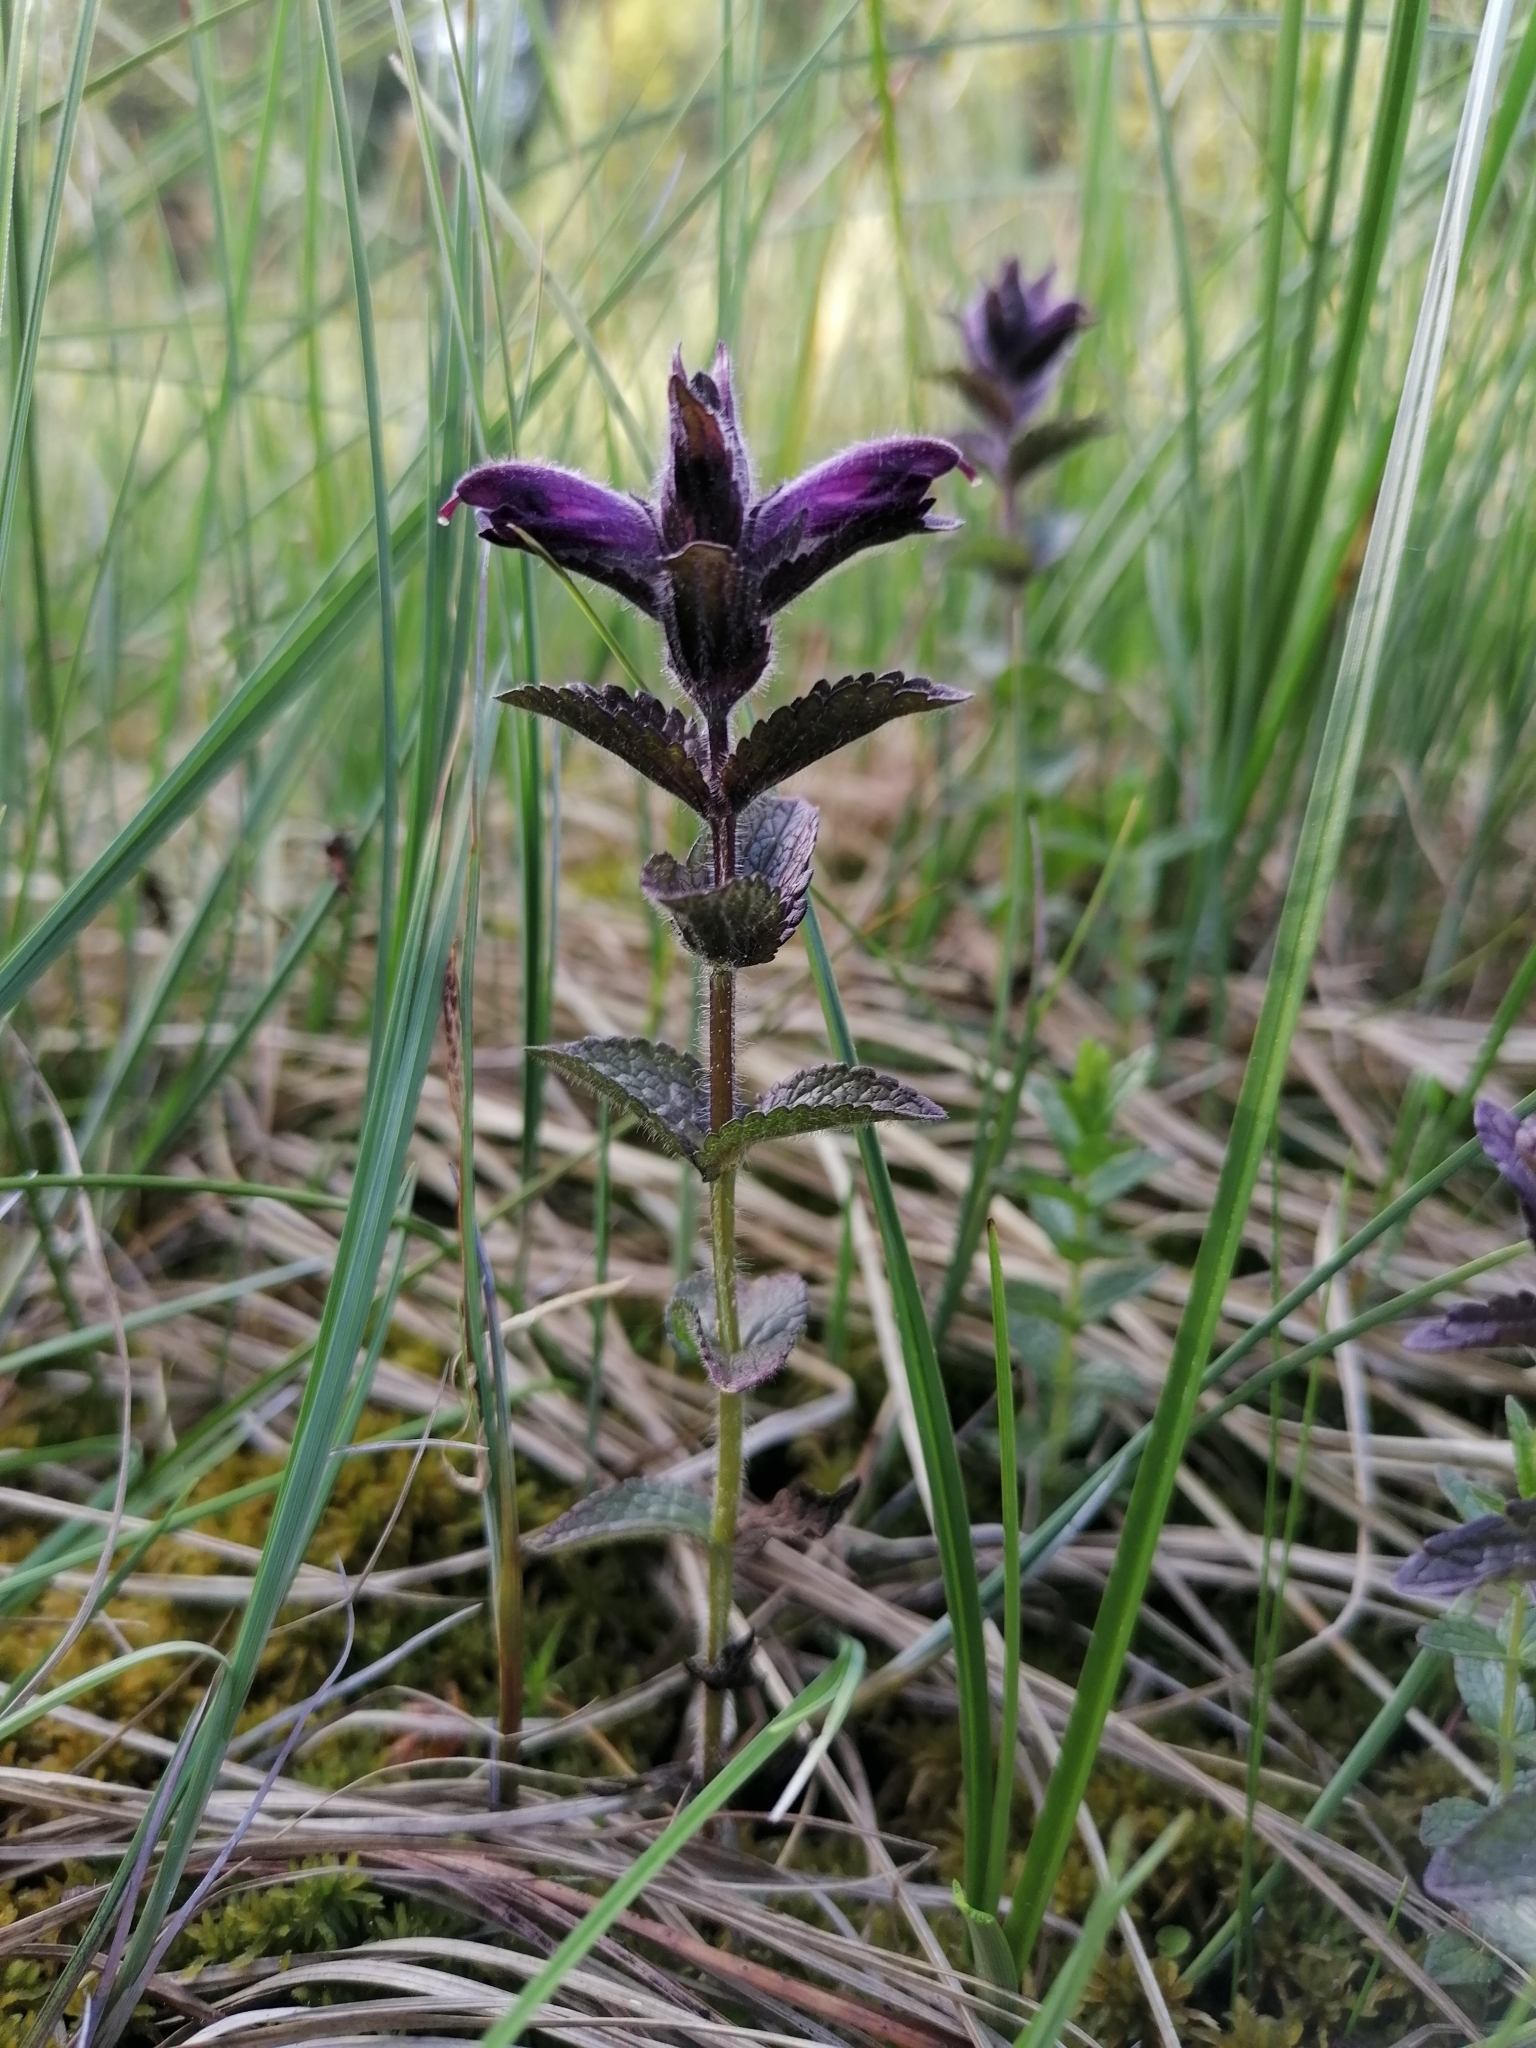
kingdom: Plantae
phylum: Tracheophyta
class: Magnoliopsida
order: Lamiales
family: Orobanchaceae
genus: Bartsia
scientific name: Bartsia alpina
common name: Alpine bartsia
